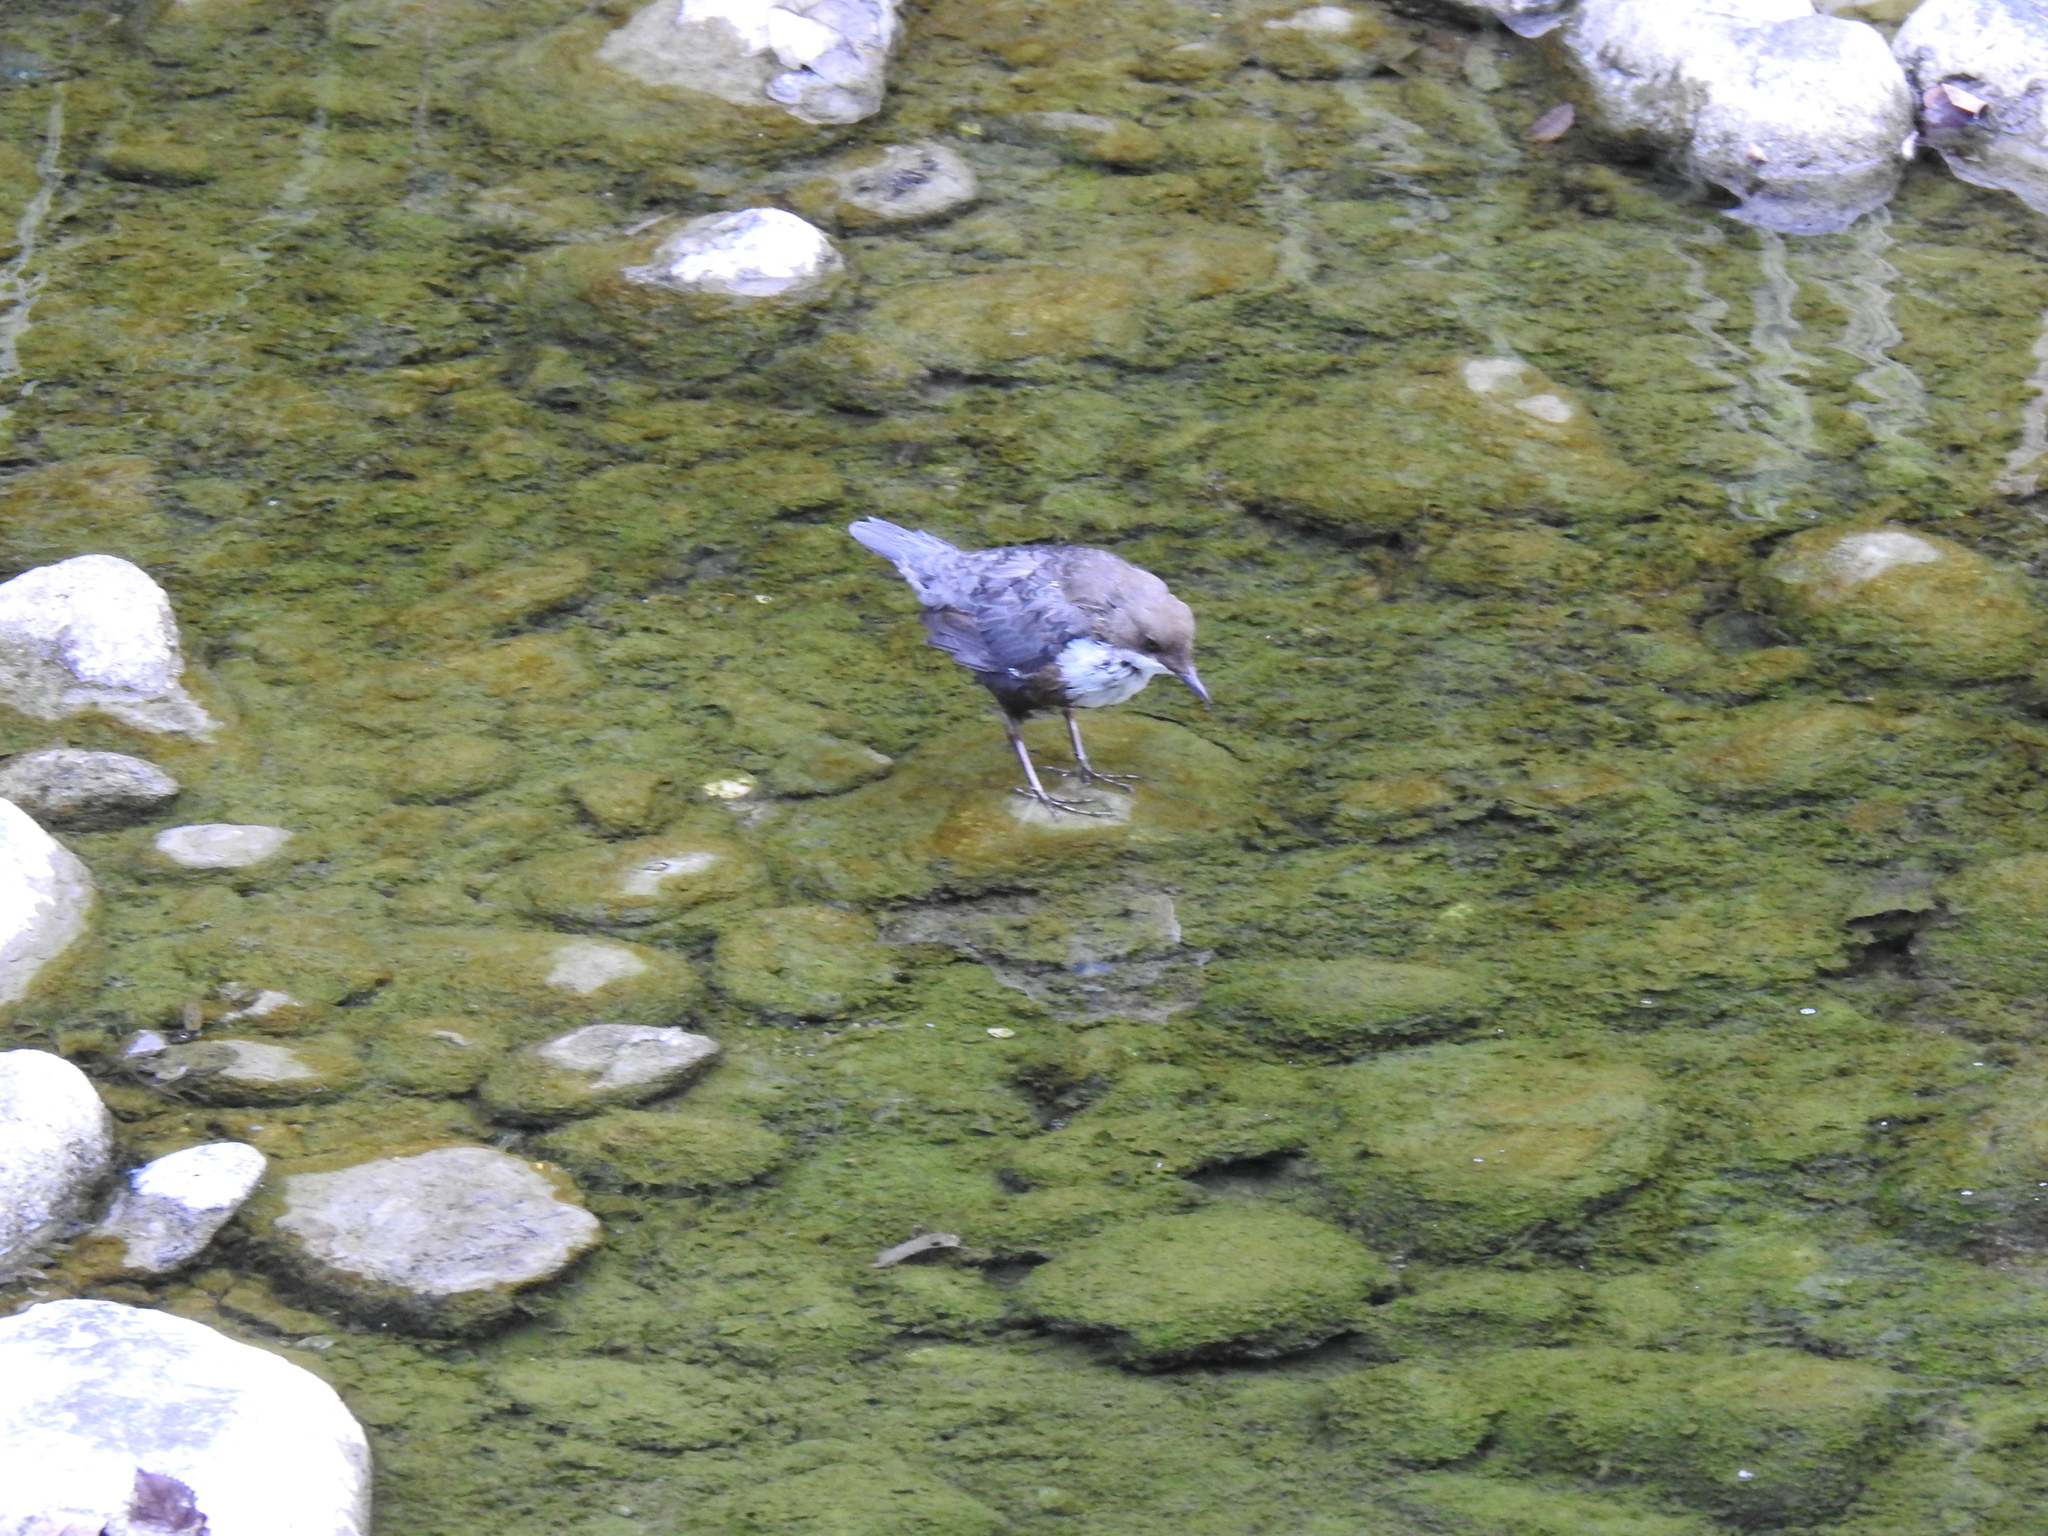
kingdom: Animalia
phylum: Chordata
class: Aves
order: Passeriformes
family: Cinclidae
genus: Cinclus
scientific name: Cinclus cinclus
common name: White-throated dipper
